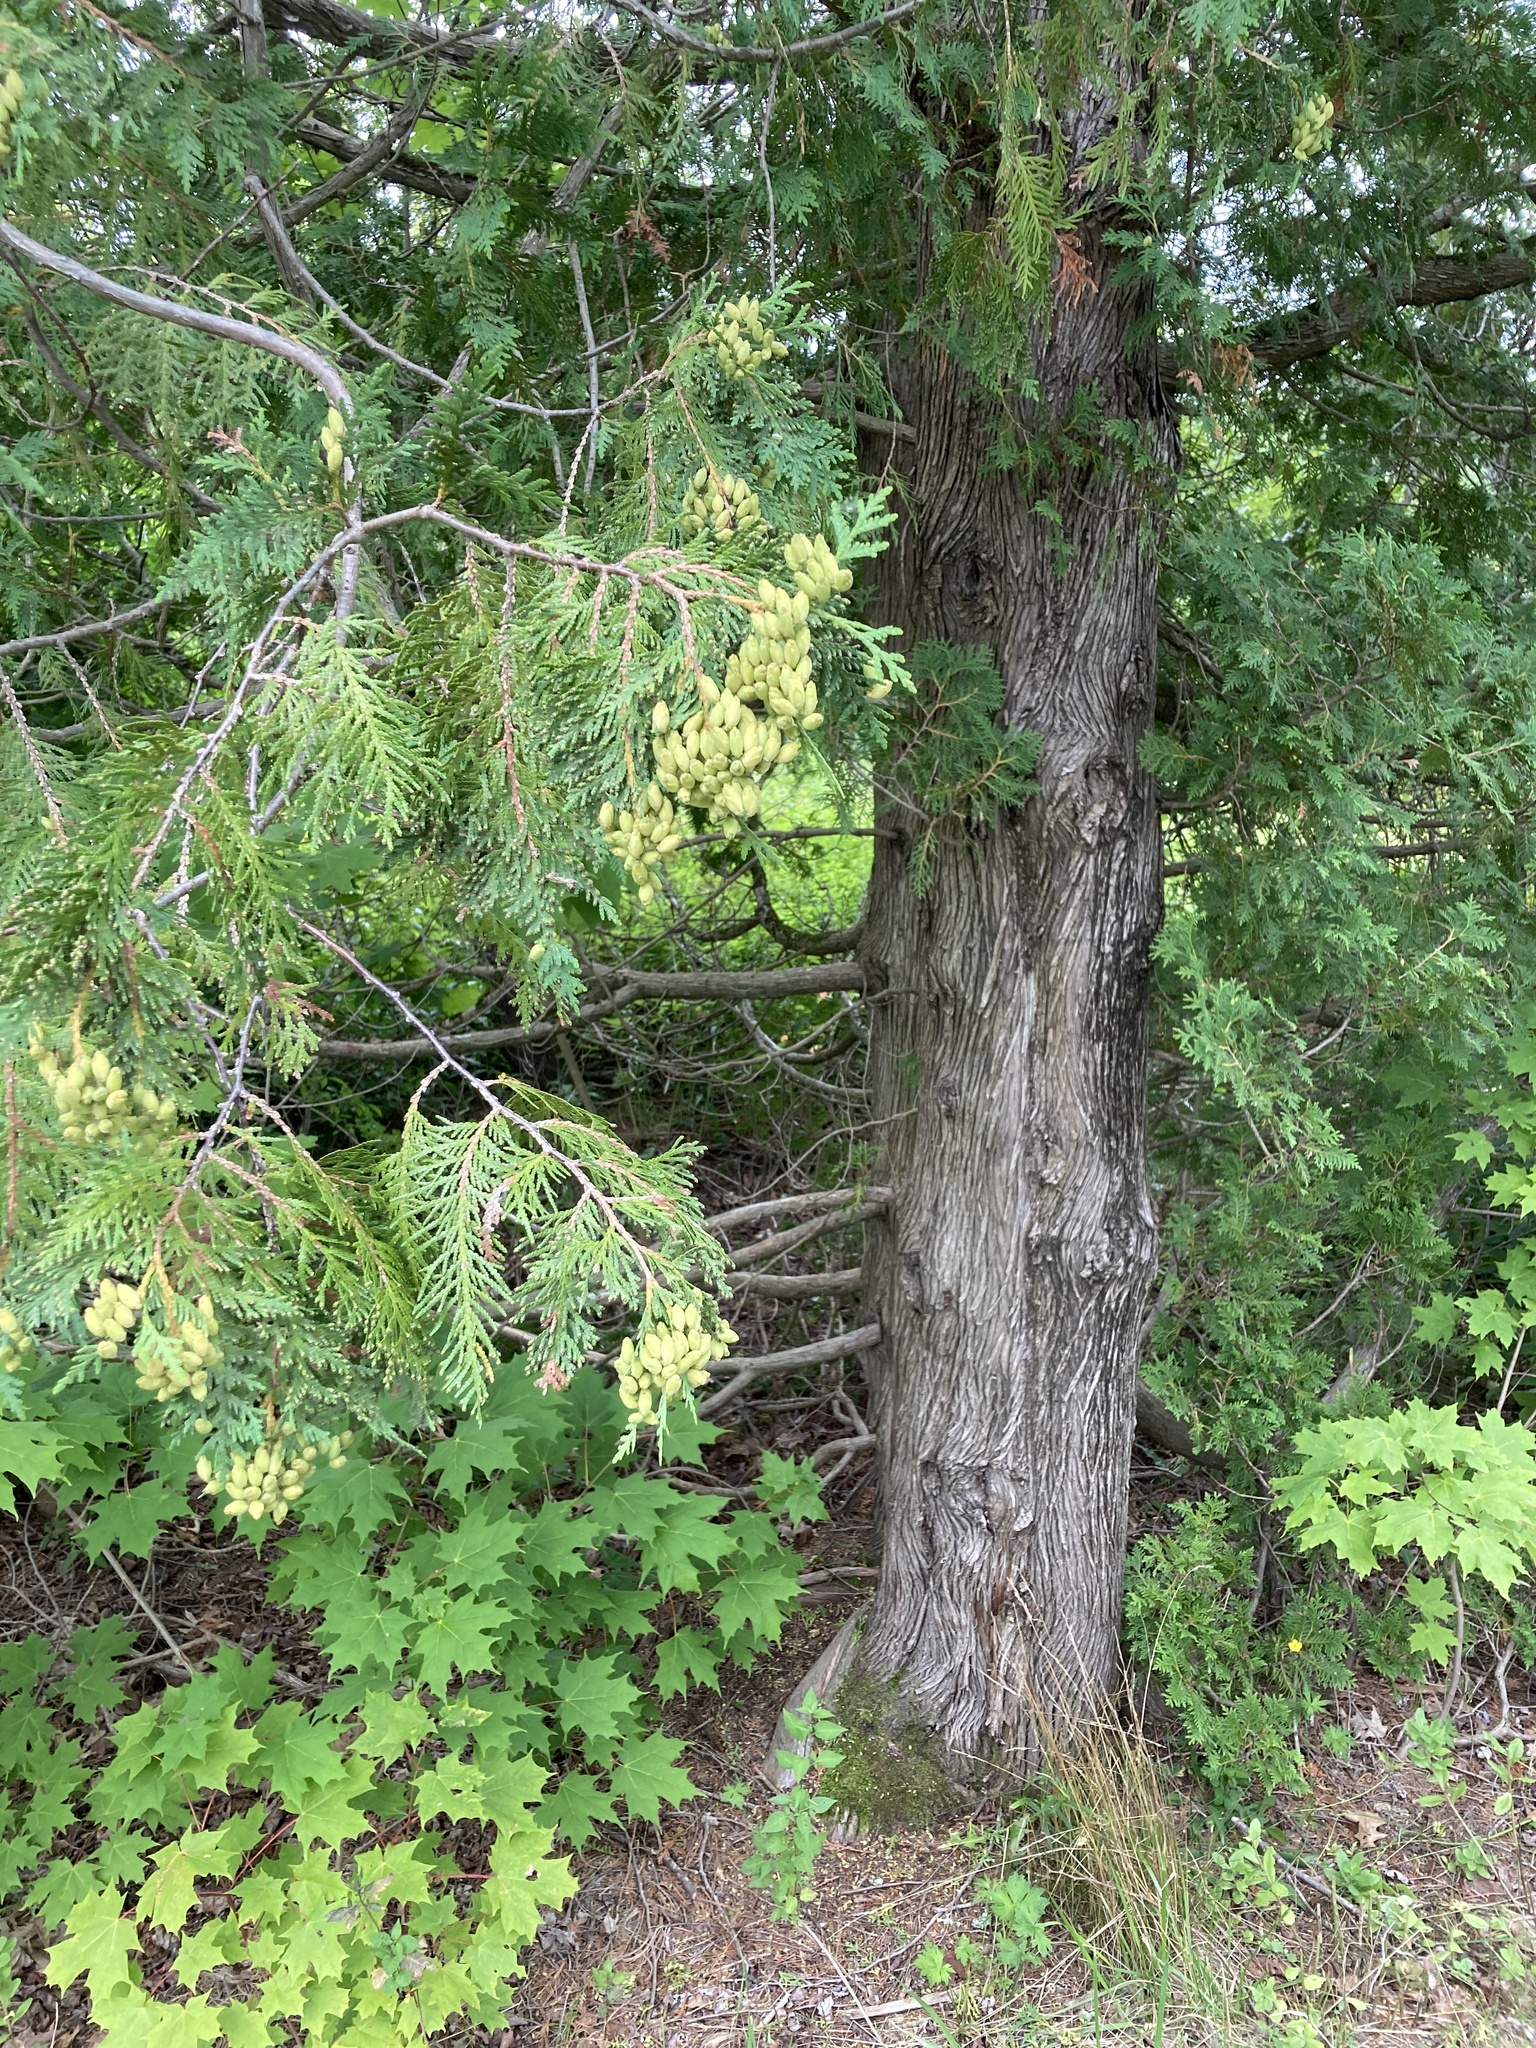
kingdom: Plantae
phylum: Tracheophyta
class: Pinopsida
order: Pinales
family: Cupressaceae
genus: Thuja
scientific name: Thuja occidentalis
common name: Northern white-cedar
